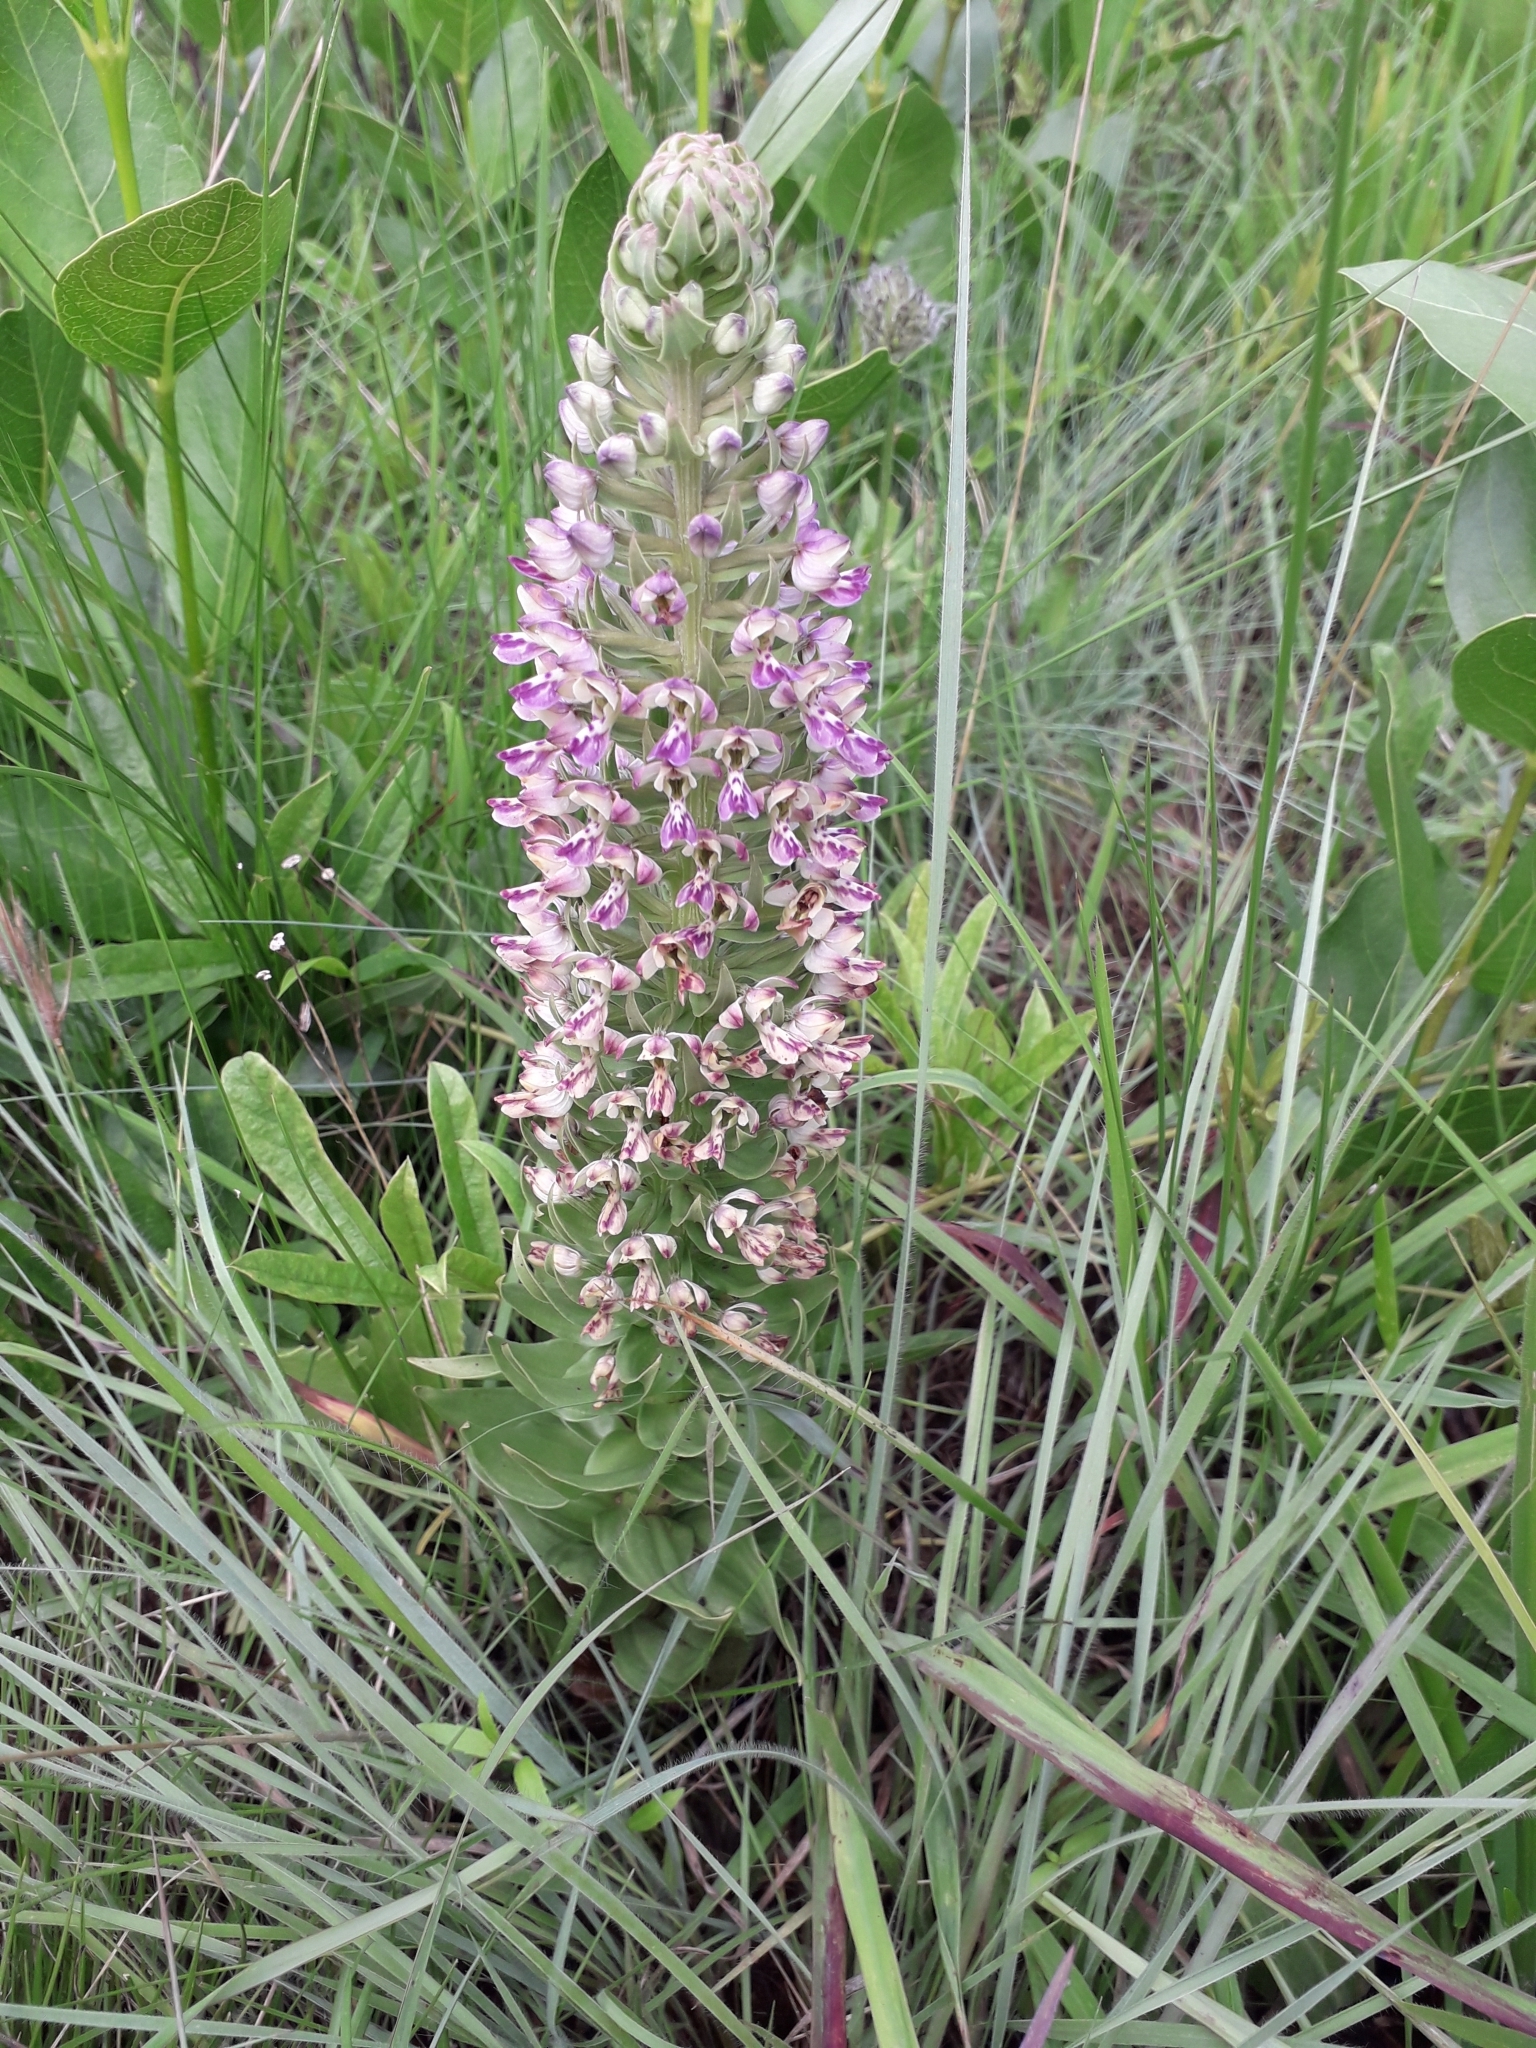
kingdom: Plantae
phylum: Tracheophyta
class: Liliopsida
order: Asparagales
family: Orchidaceae
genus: Brachycorythis
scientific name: Brachycorythis ovata
